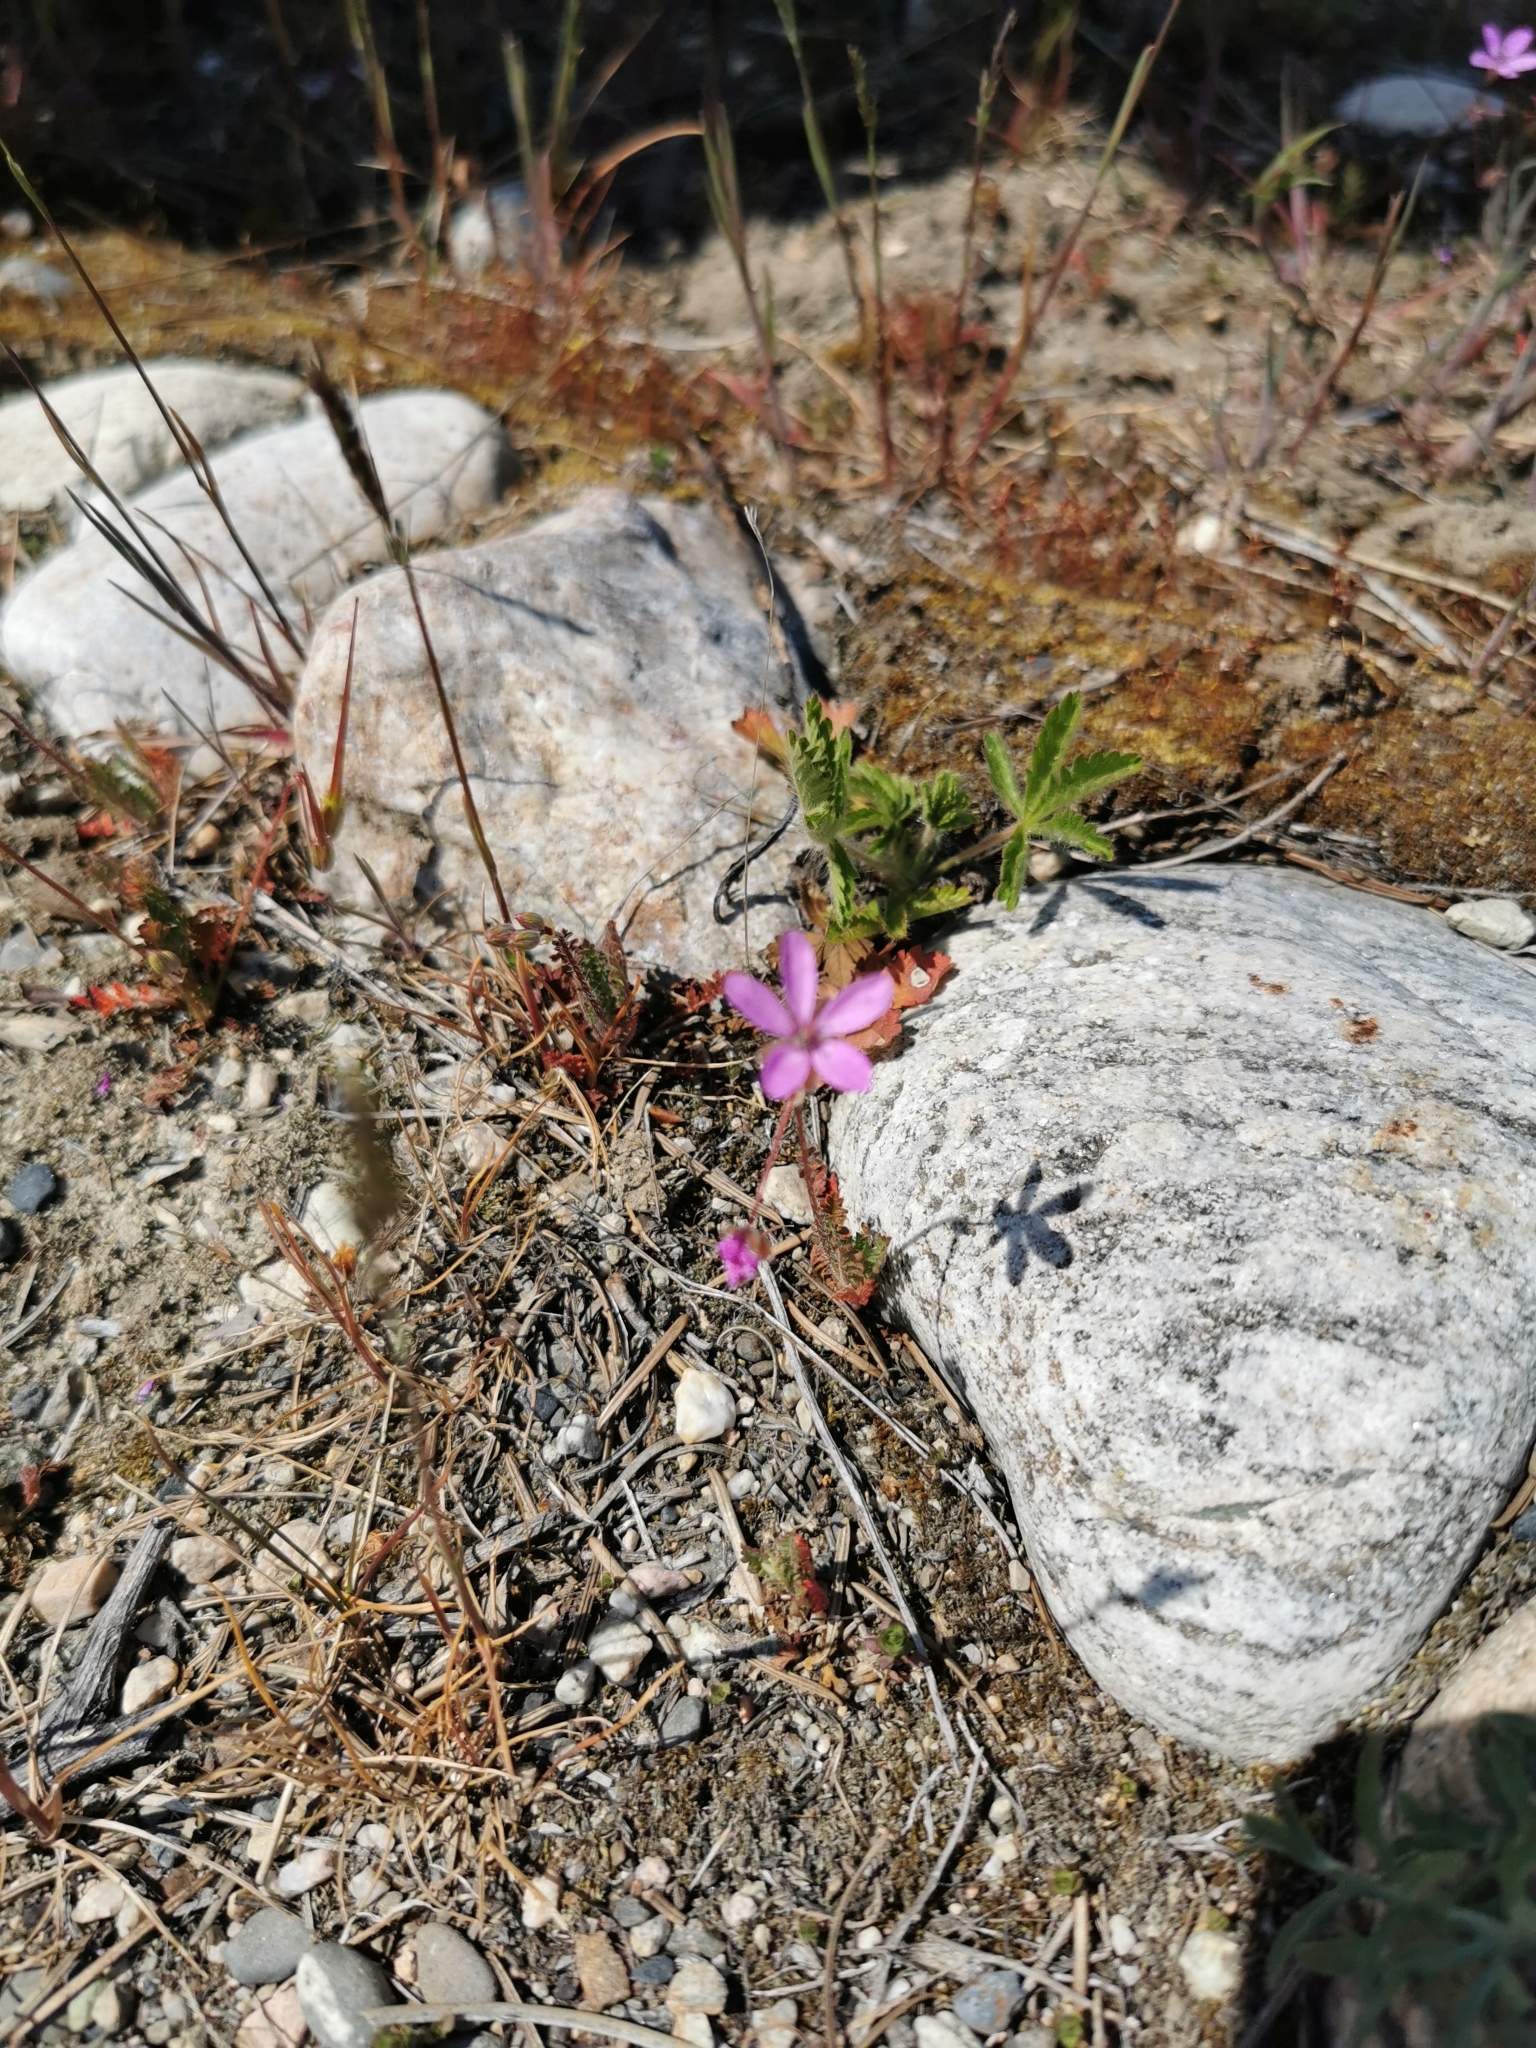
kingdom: Plantae
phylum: Tracheophyta
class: Magnoliopsida
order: Geraniales
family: Geraniaceae
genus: Erodium
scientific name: Erodium cicutarium
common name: Common stork's-bill
